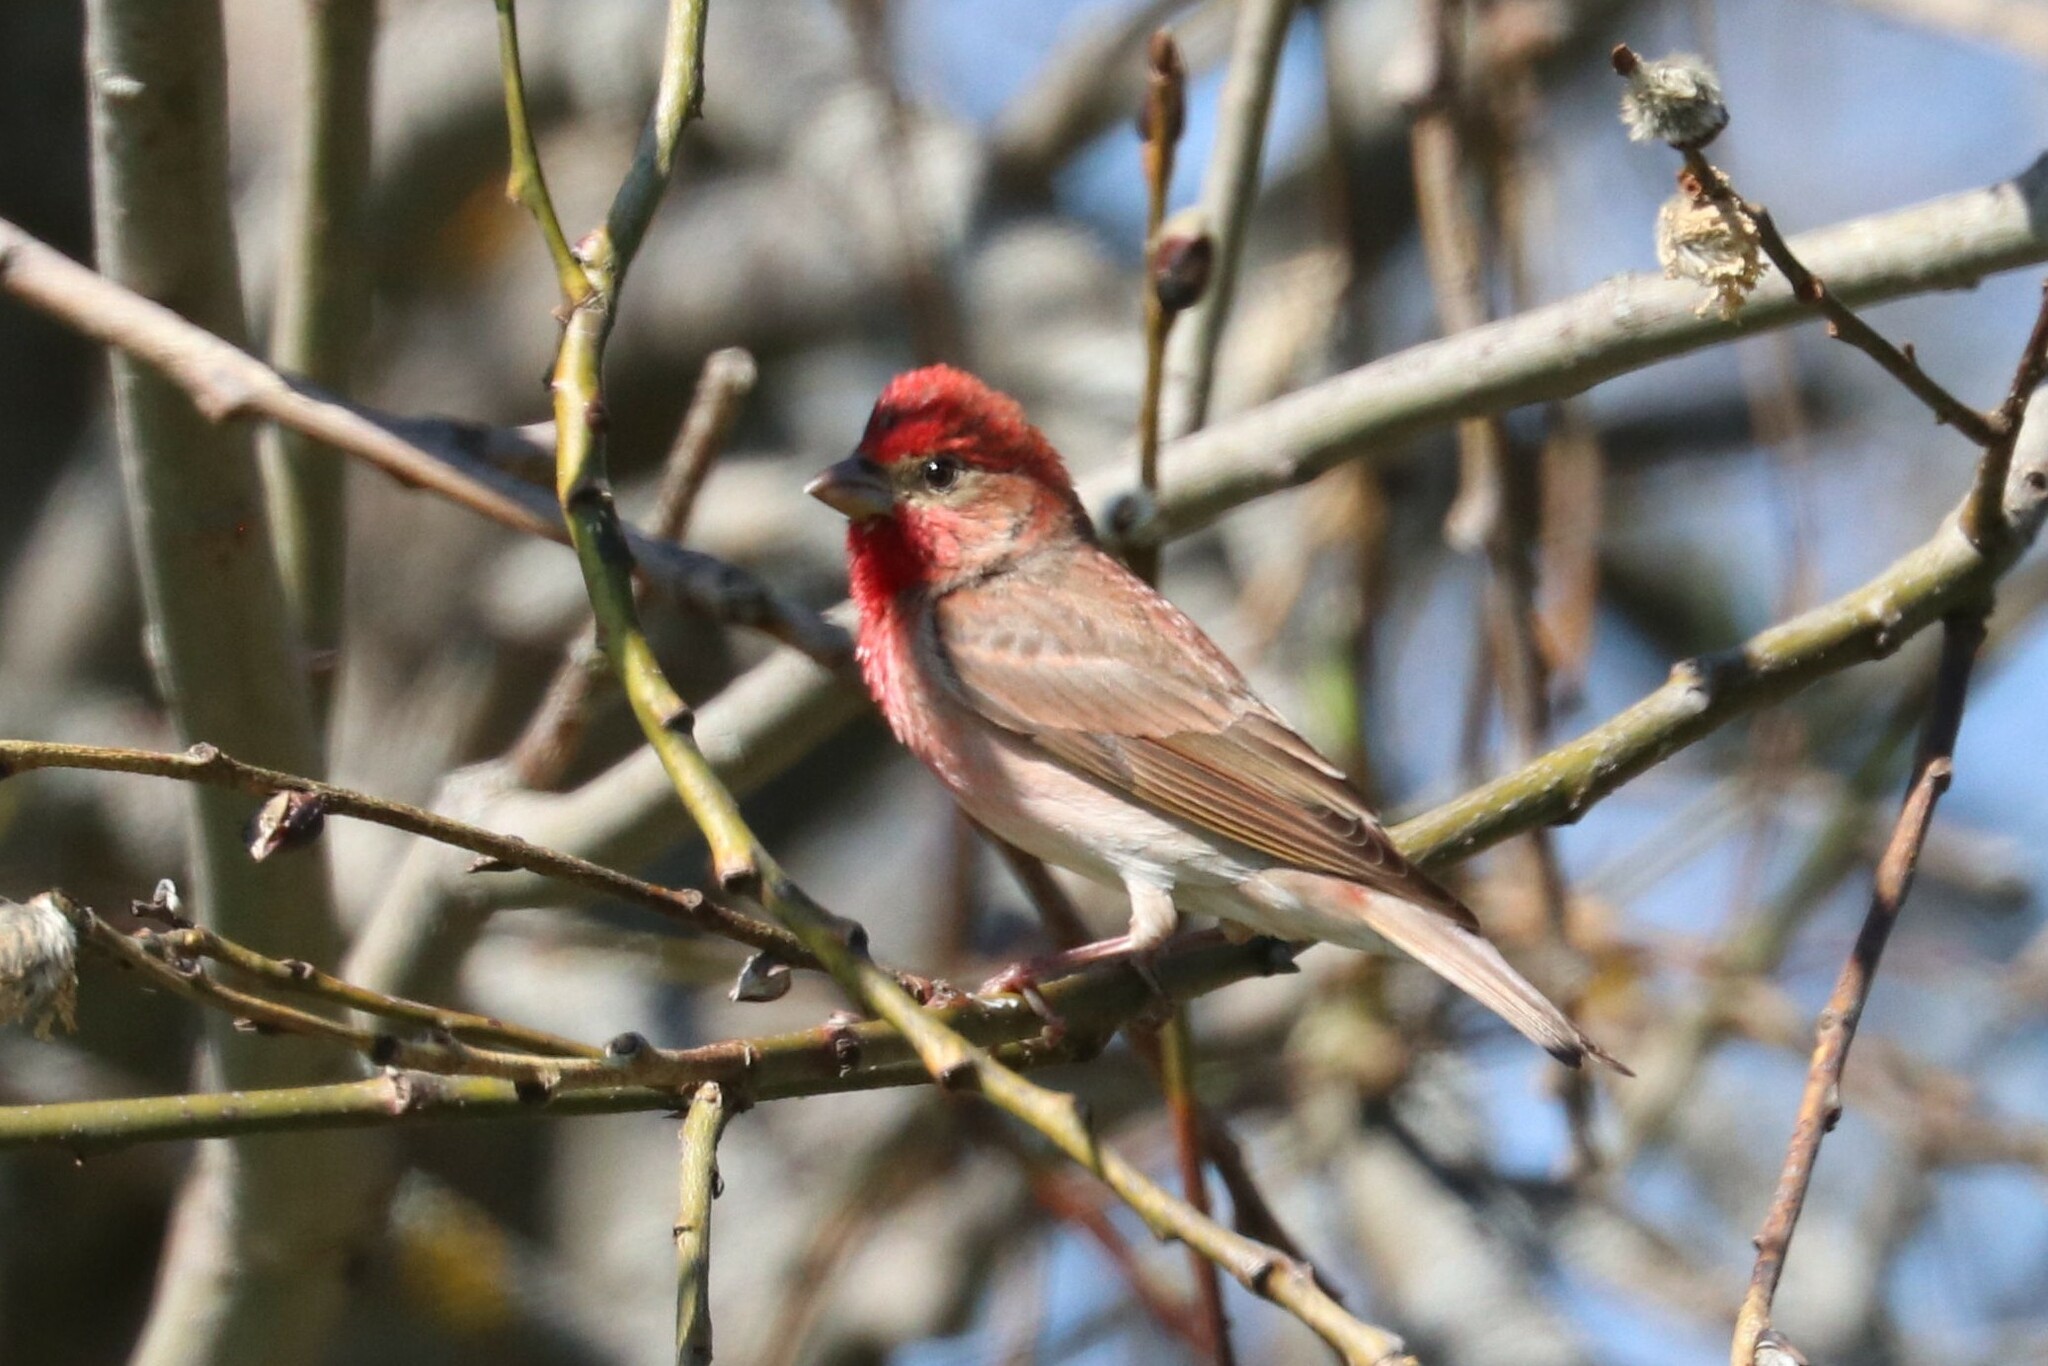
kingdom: Animalia
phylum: Chordata
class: Aves
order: Passeriformes
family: Fringillidae
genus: Carpodacus
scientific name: Carpodacus erythrinus
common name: Common rosefinch
